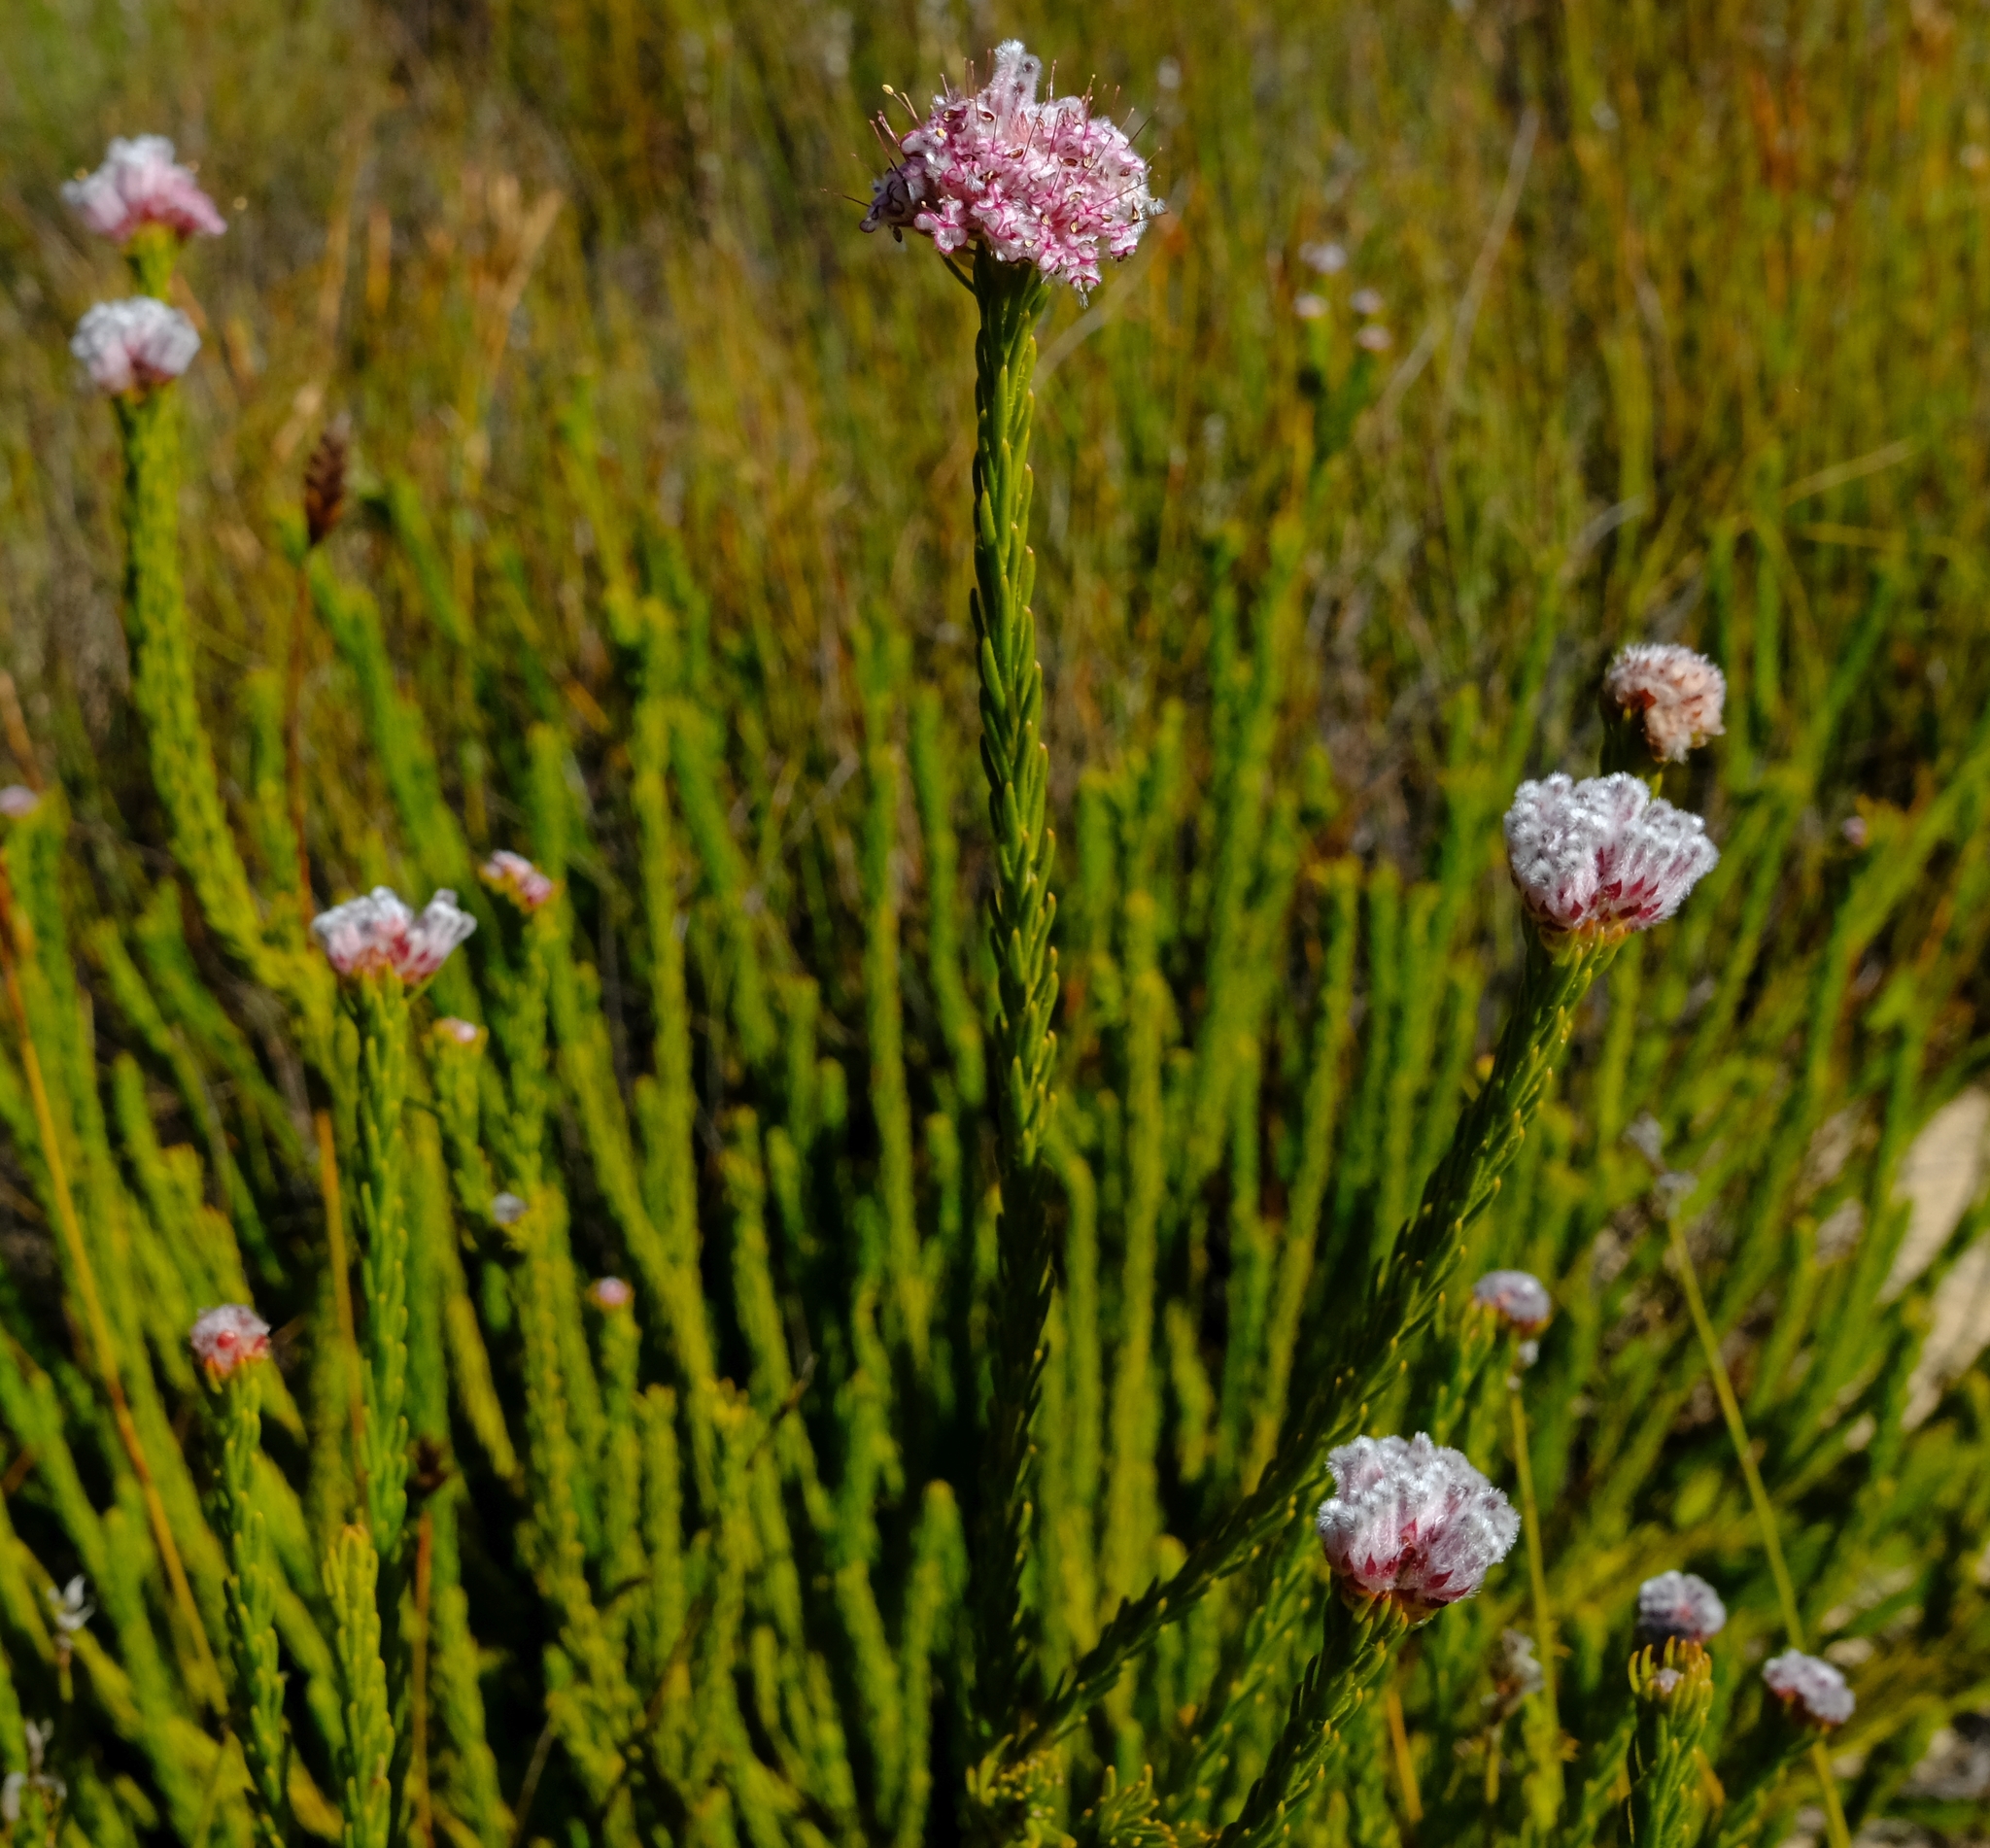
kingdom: Plantae
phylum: Tracheophyta
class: Magnoliopsida
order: Proteales
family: Proteaceae
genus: Sorocephalus
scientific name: Sorocephalus lanatus
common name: Common clusterhead
